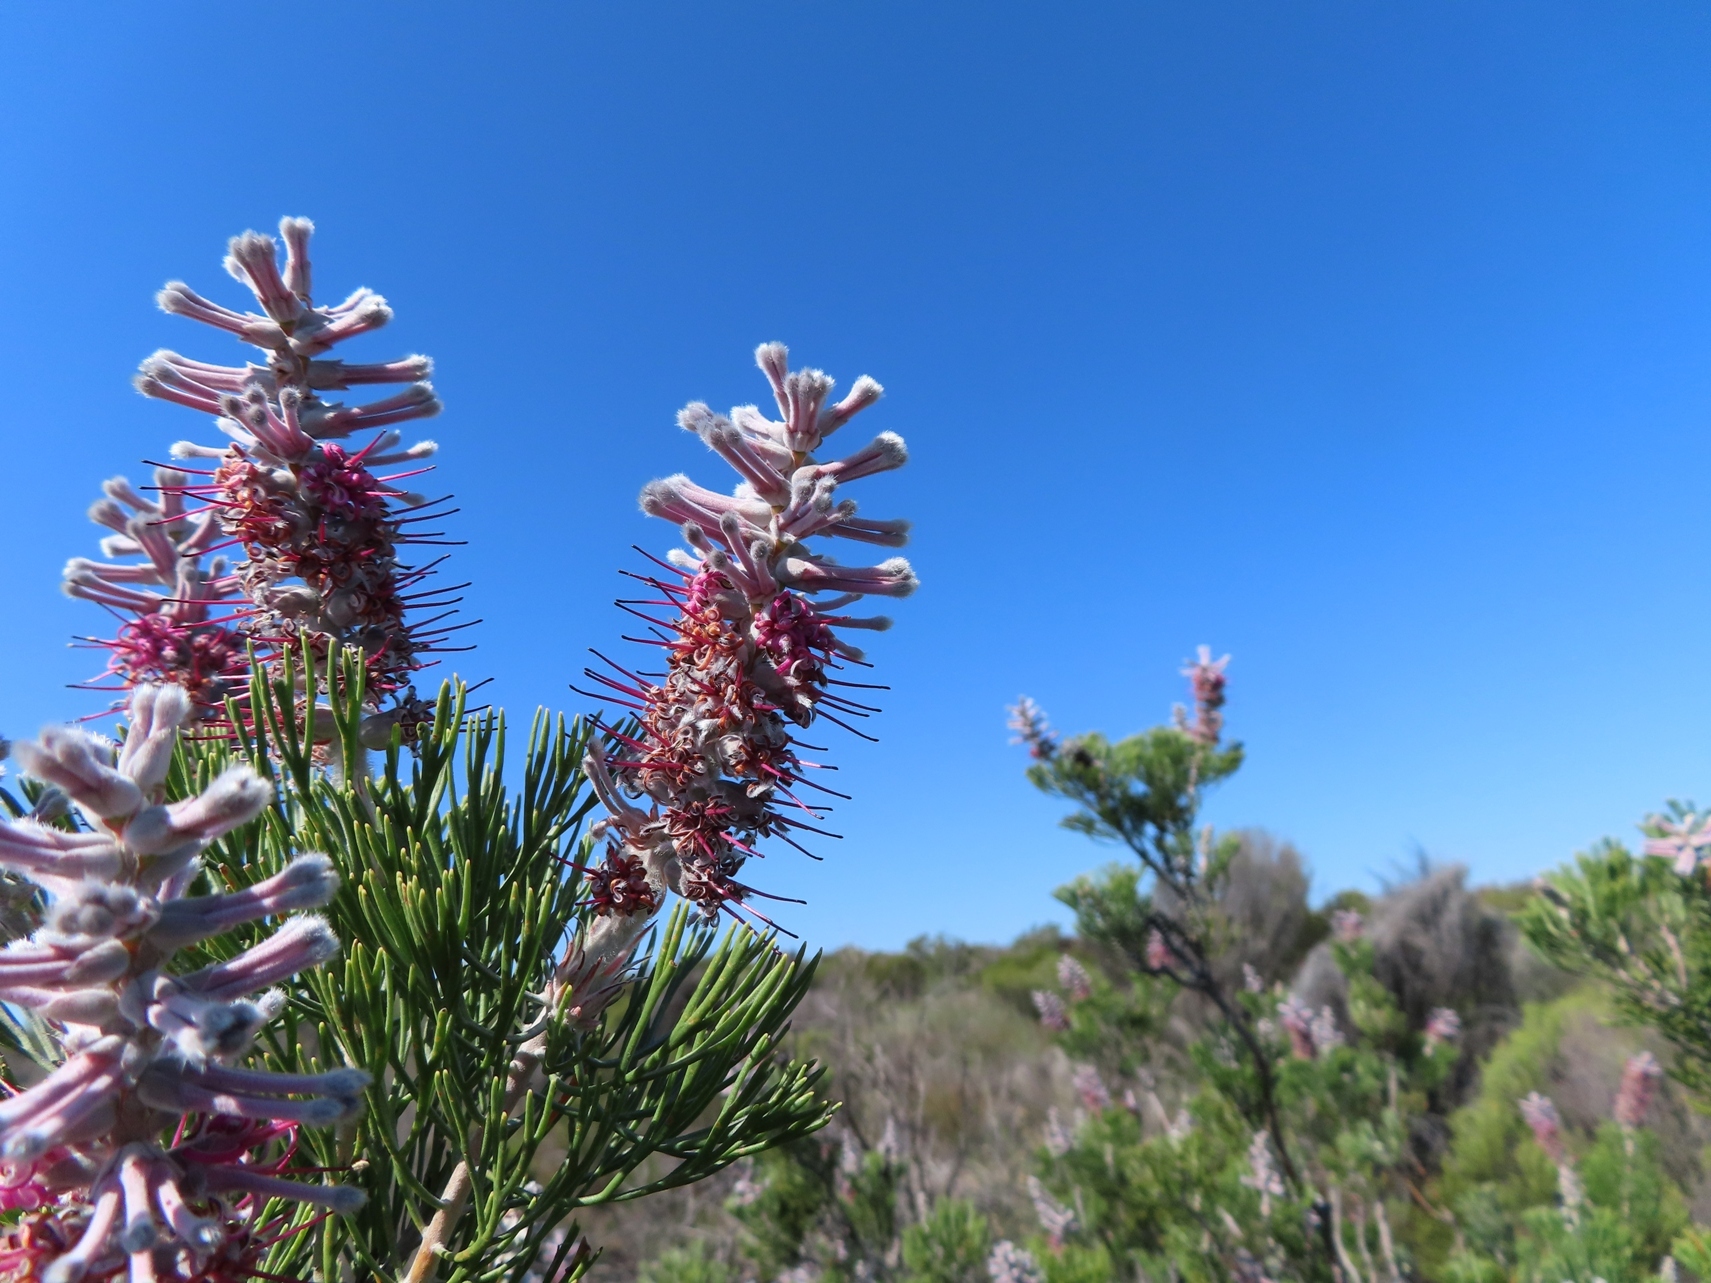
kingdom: Plantae
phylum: Tracheophyta
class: Magnoliopsida
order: Proteales
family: Proteaceae
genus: Paranomus
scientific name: Paranomus bracteolaris
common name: Bokkeveld tree sceptre
